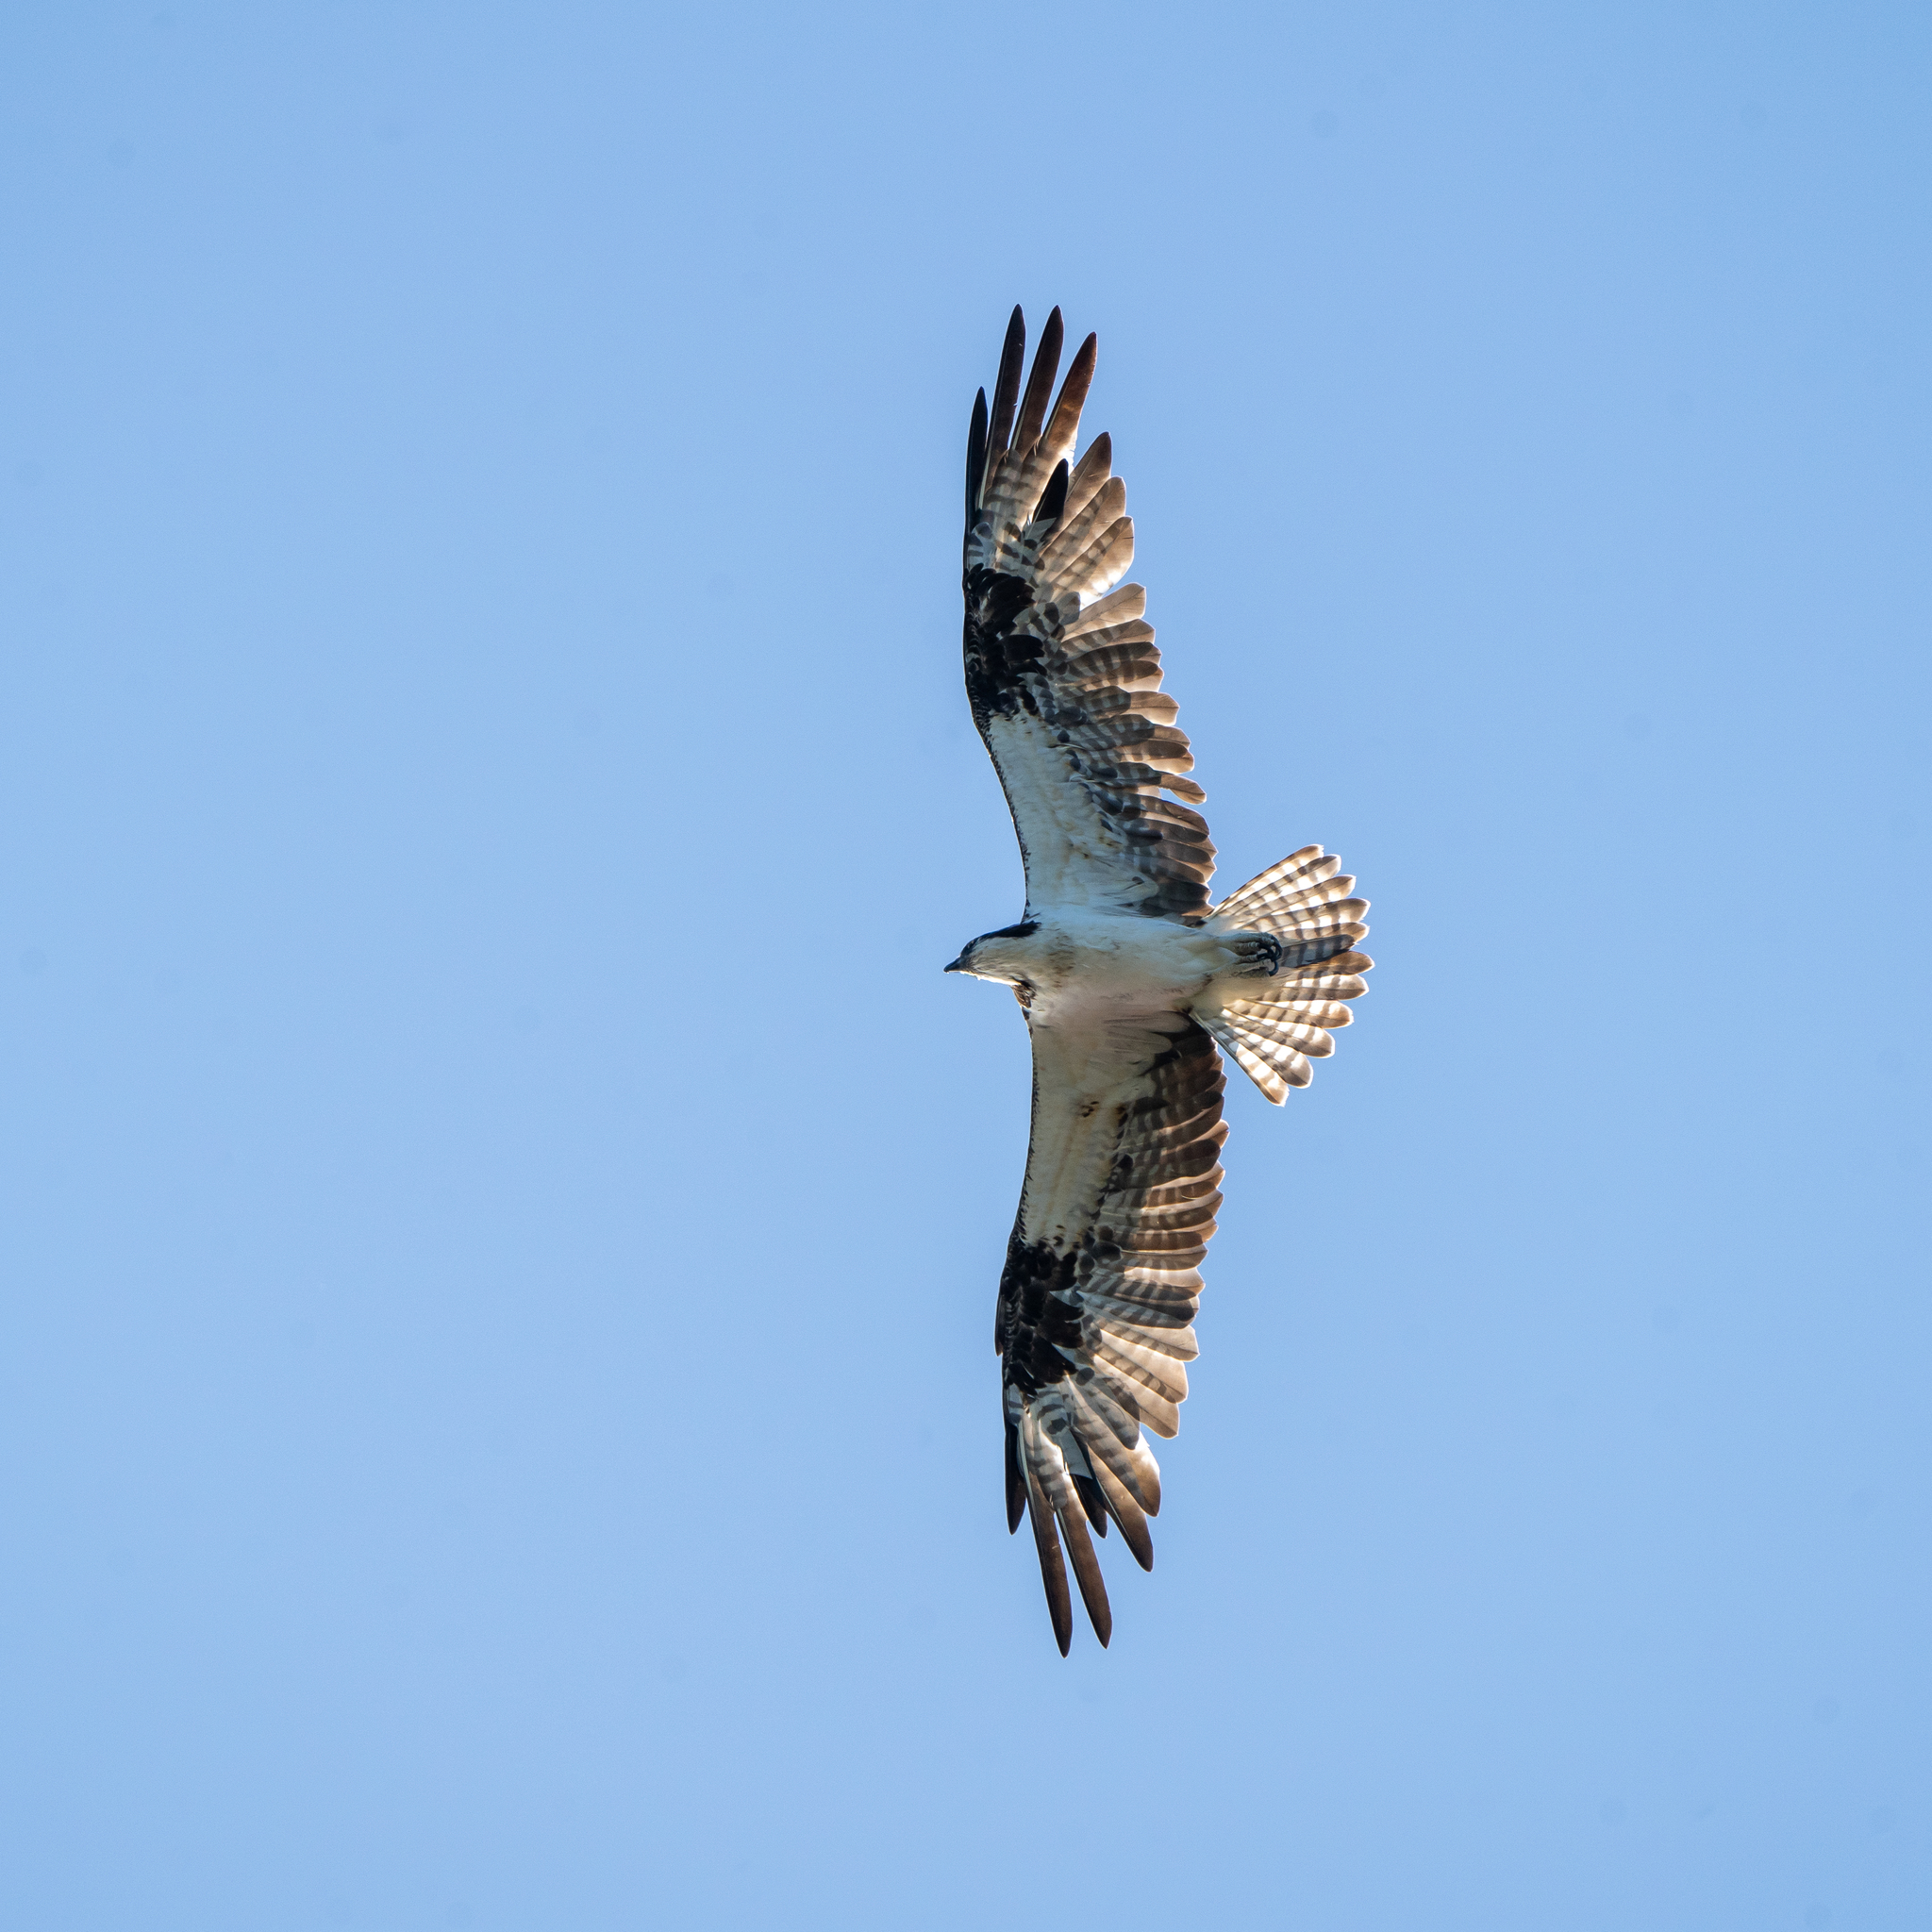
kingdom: Animalia
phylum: Chordata
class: Aves
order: Accipitriformes
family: Pandionidae
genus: Pandion
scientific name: Pandion haliaetus
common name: Osprey
